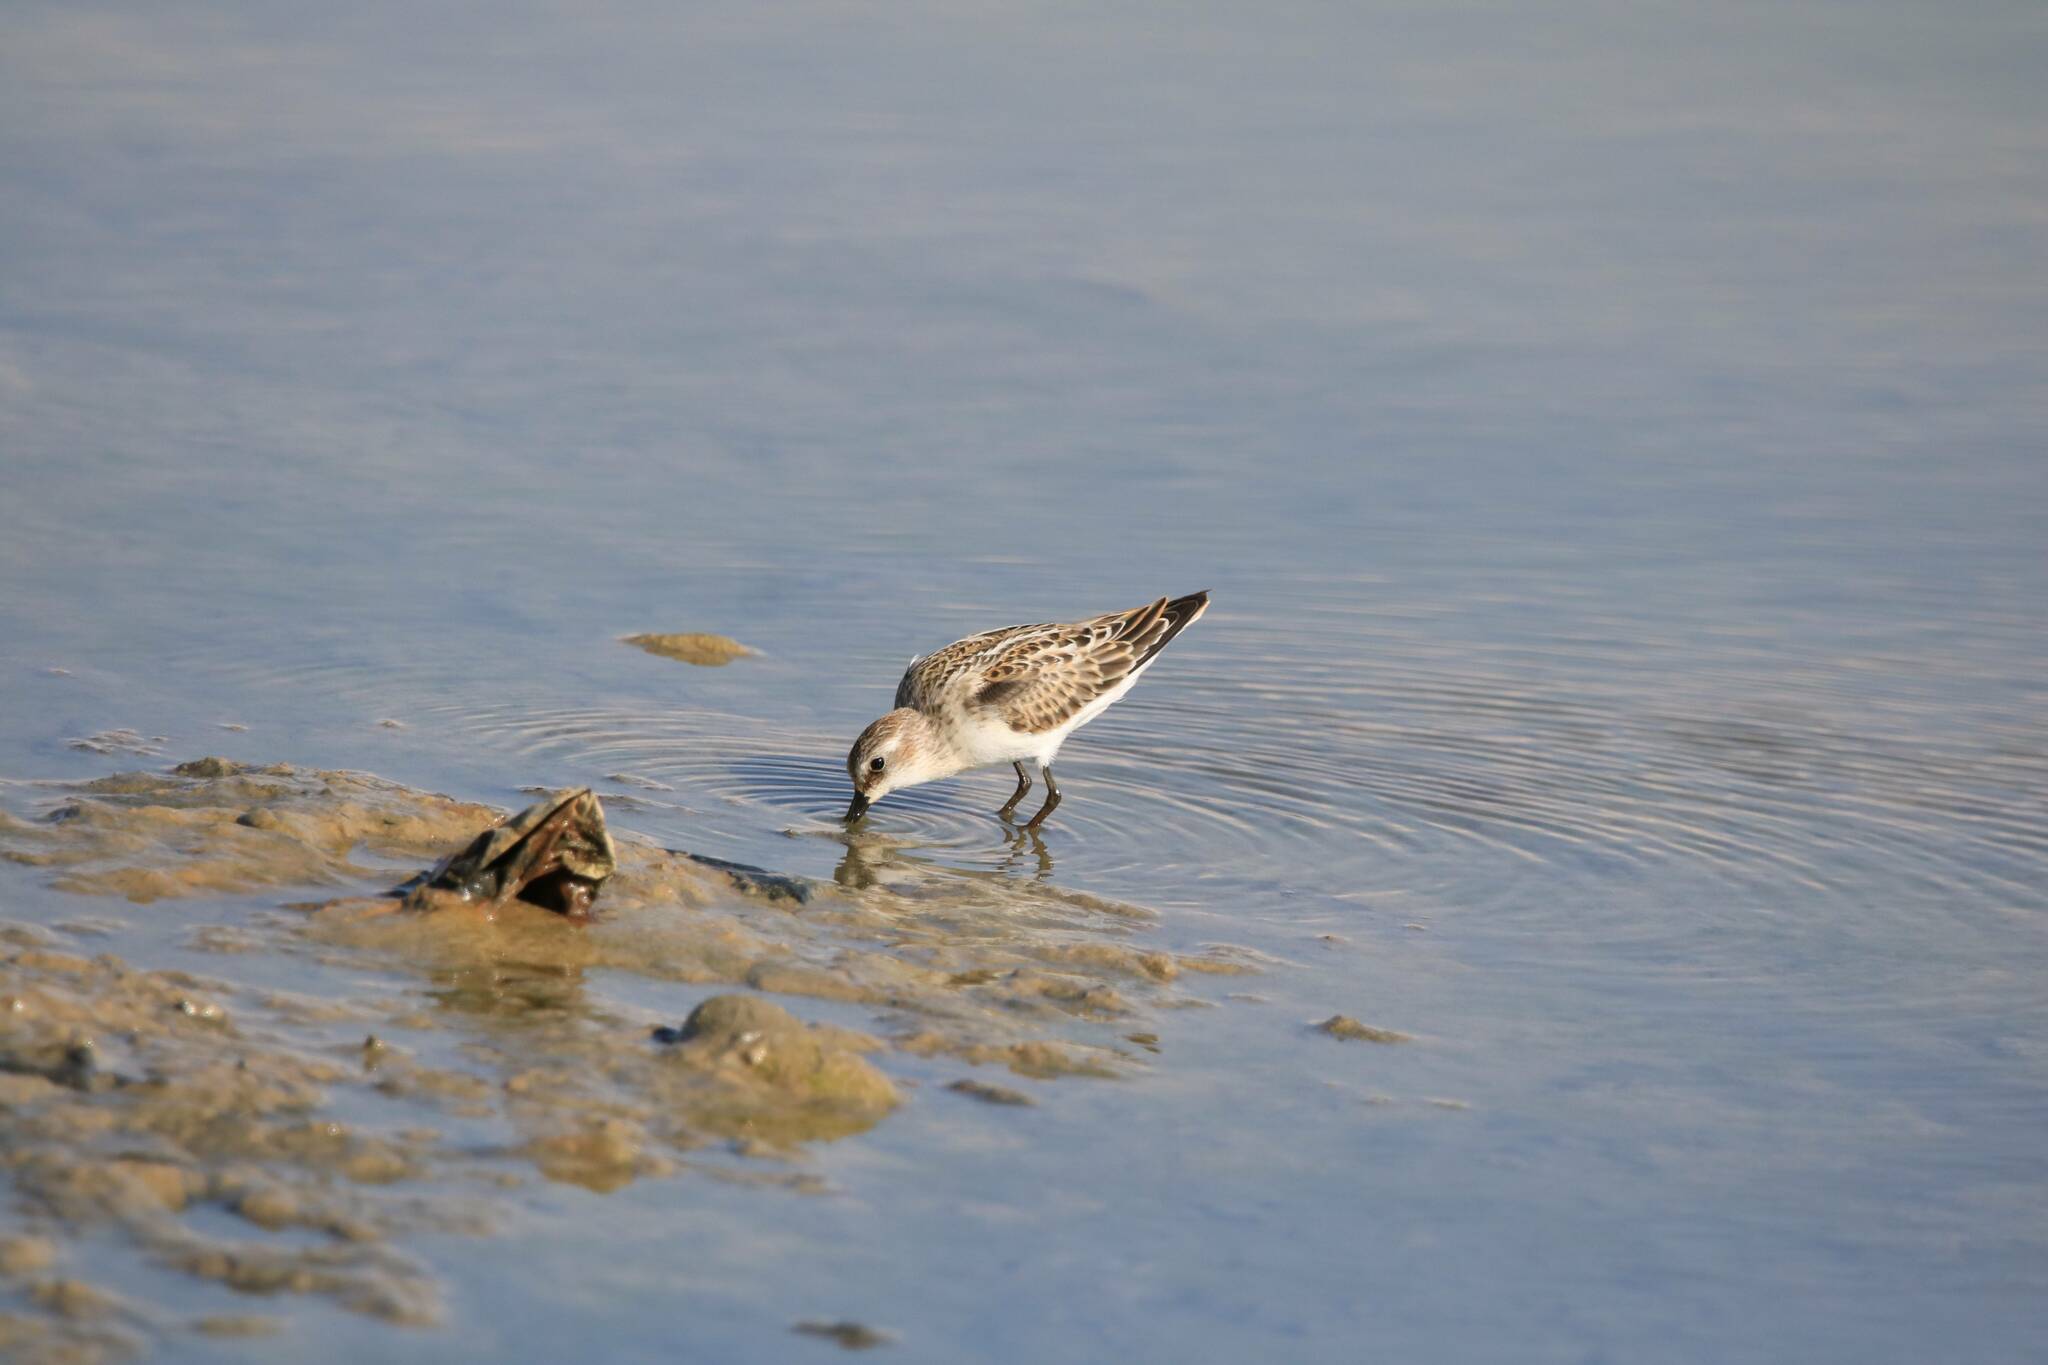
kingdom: Animalia
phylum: Chordata
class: Aves
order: Charadriiformes
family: Scolopacidae
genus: Calidris
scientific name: Calidris minuta
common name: Little stint
